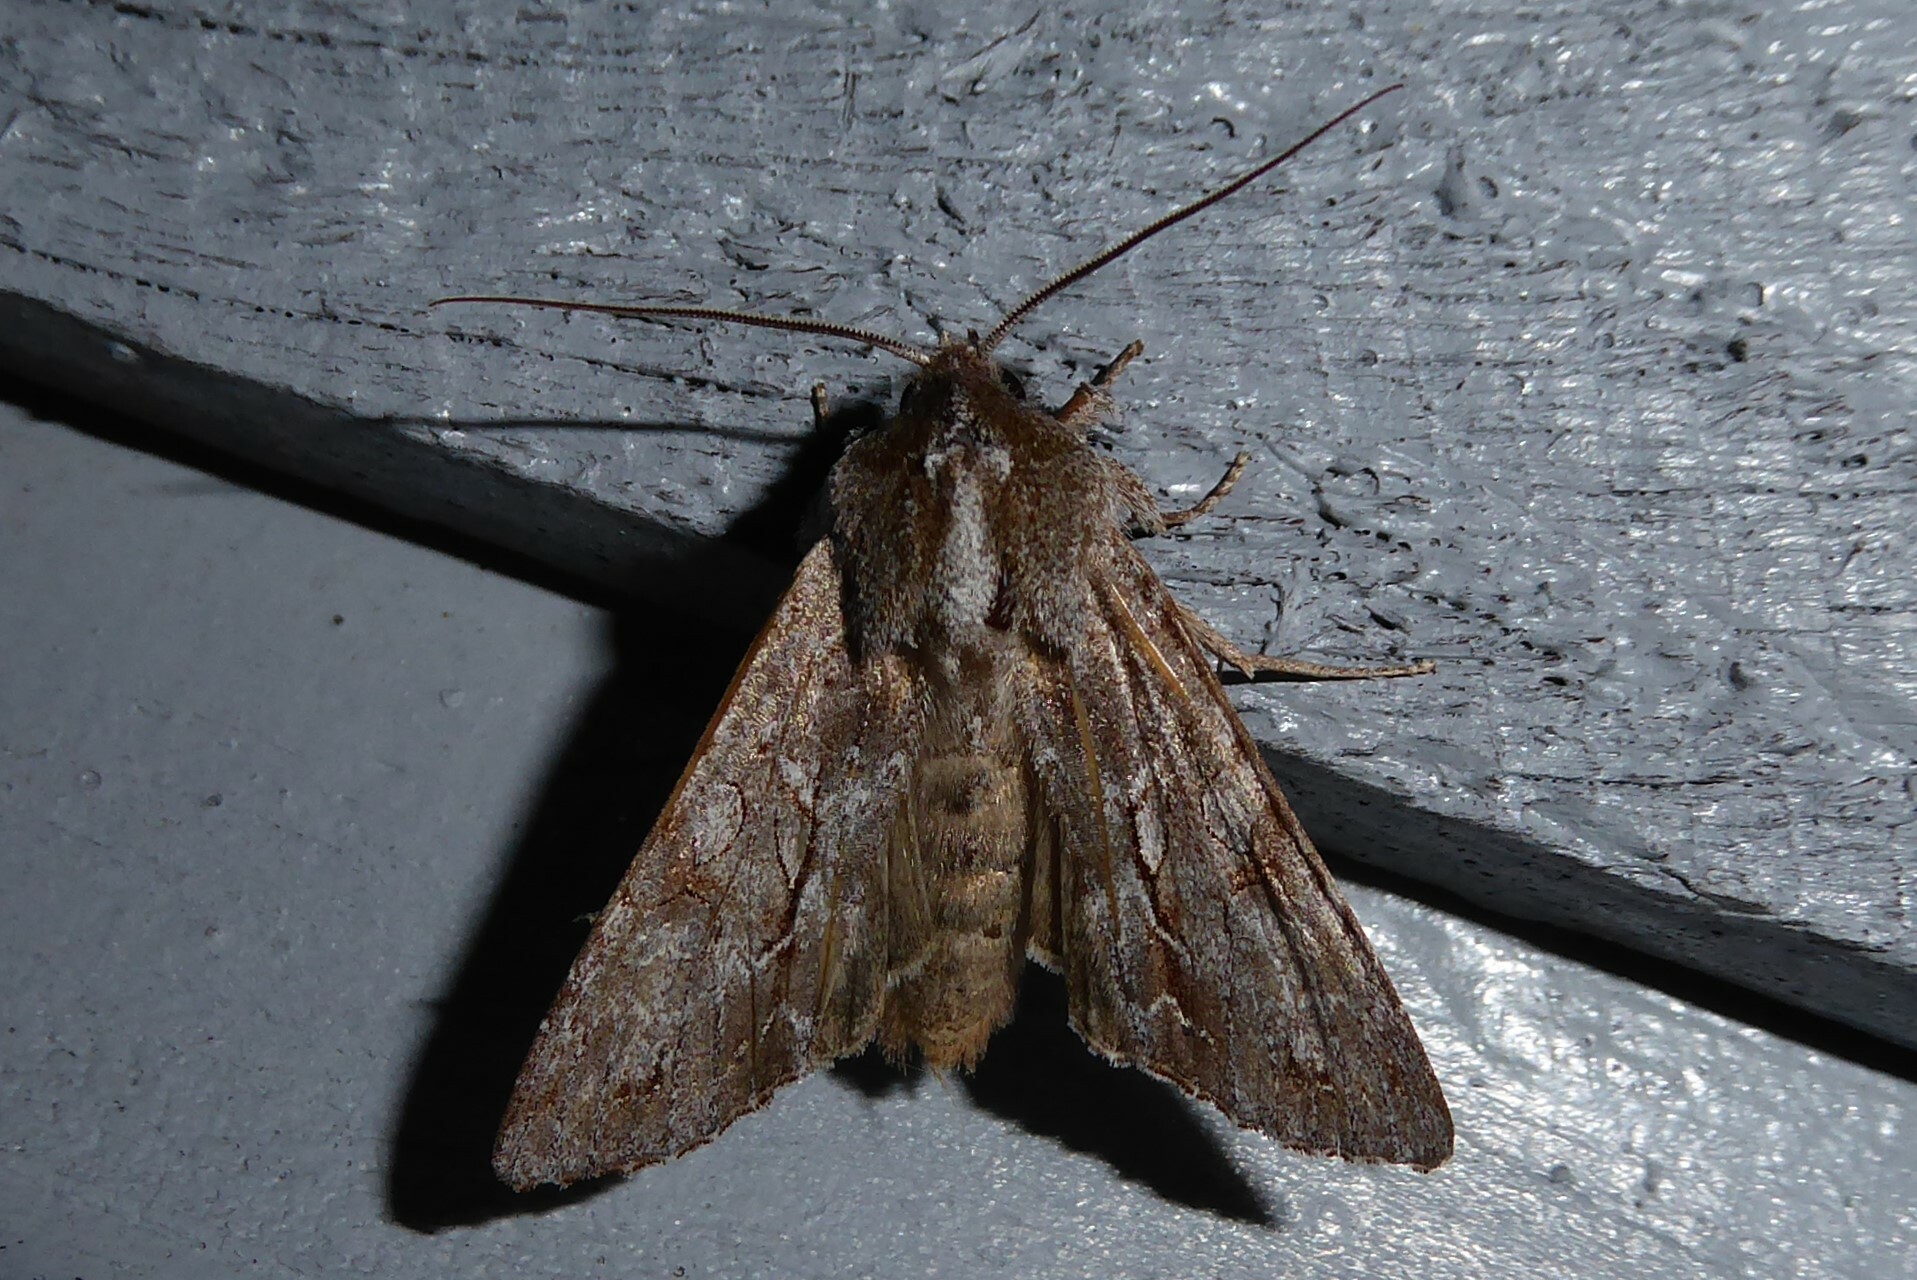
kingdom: Animalia
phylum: Arthropoda
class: Insecta
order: Lepidoptera
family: Noctuidae
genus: Ichneutica
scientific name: Ichneutica
